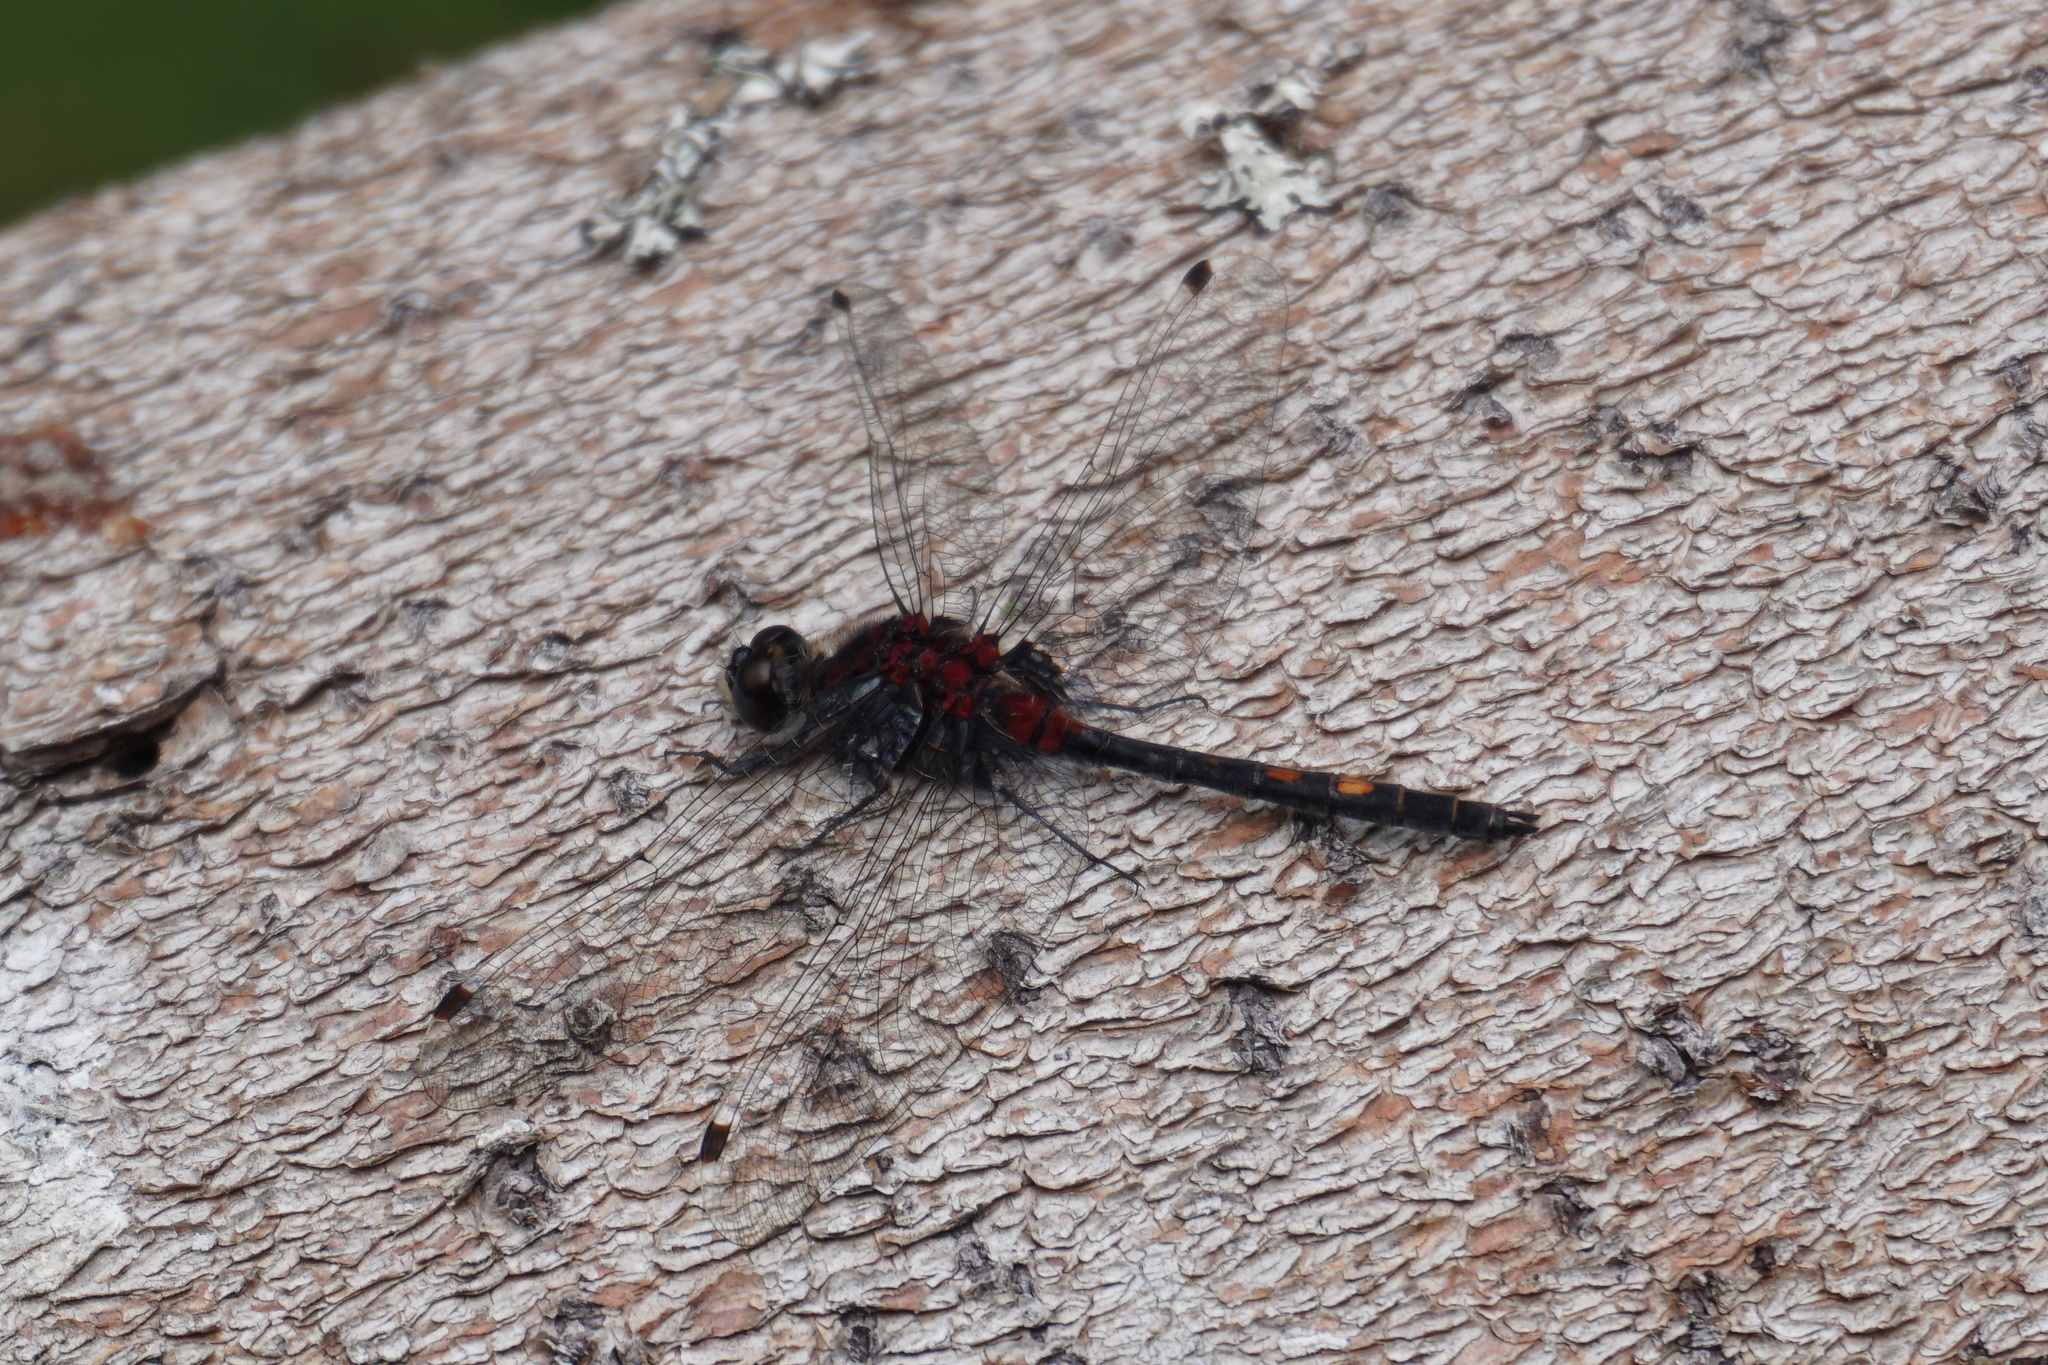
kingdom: Animalia
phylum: Arthropoda
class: Insecta
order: Odonata
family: Libellulidae
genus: Leucorrhinia
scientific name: Leucorrhinia dubia
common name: White-faced darter
